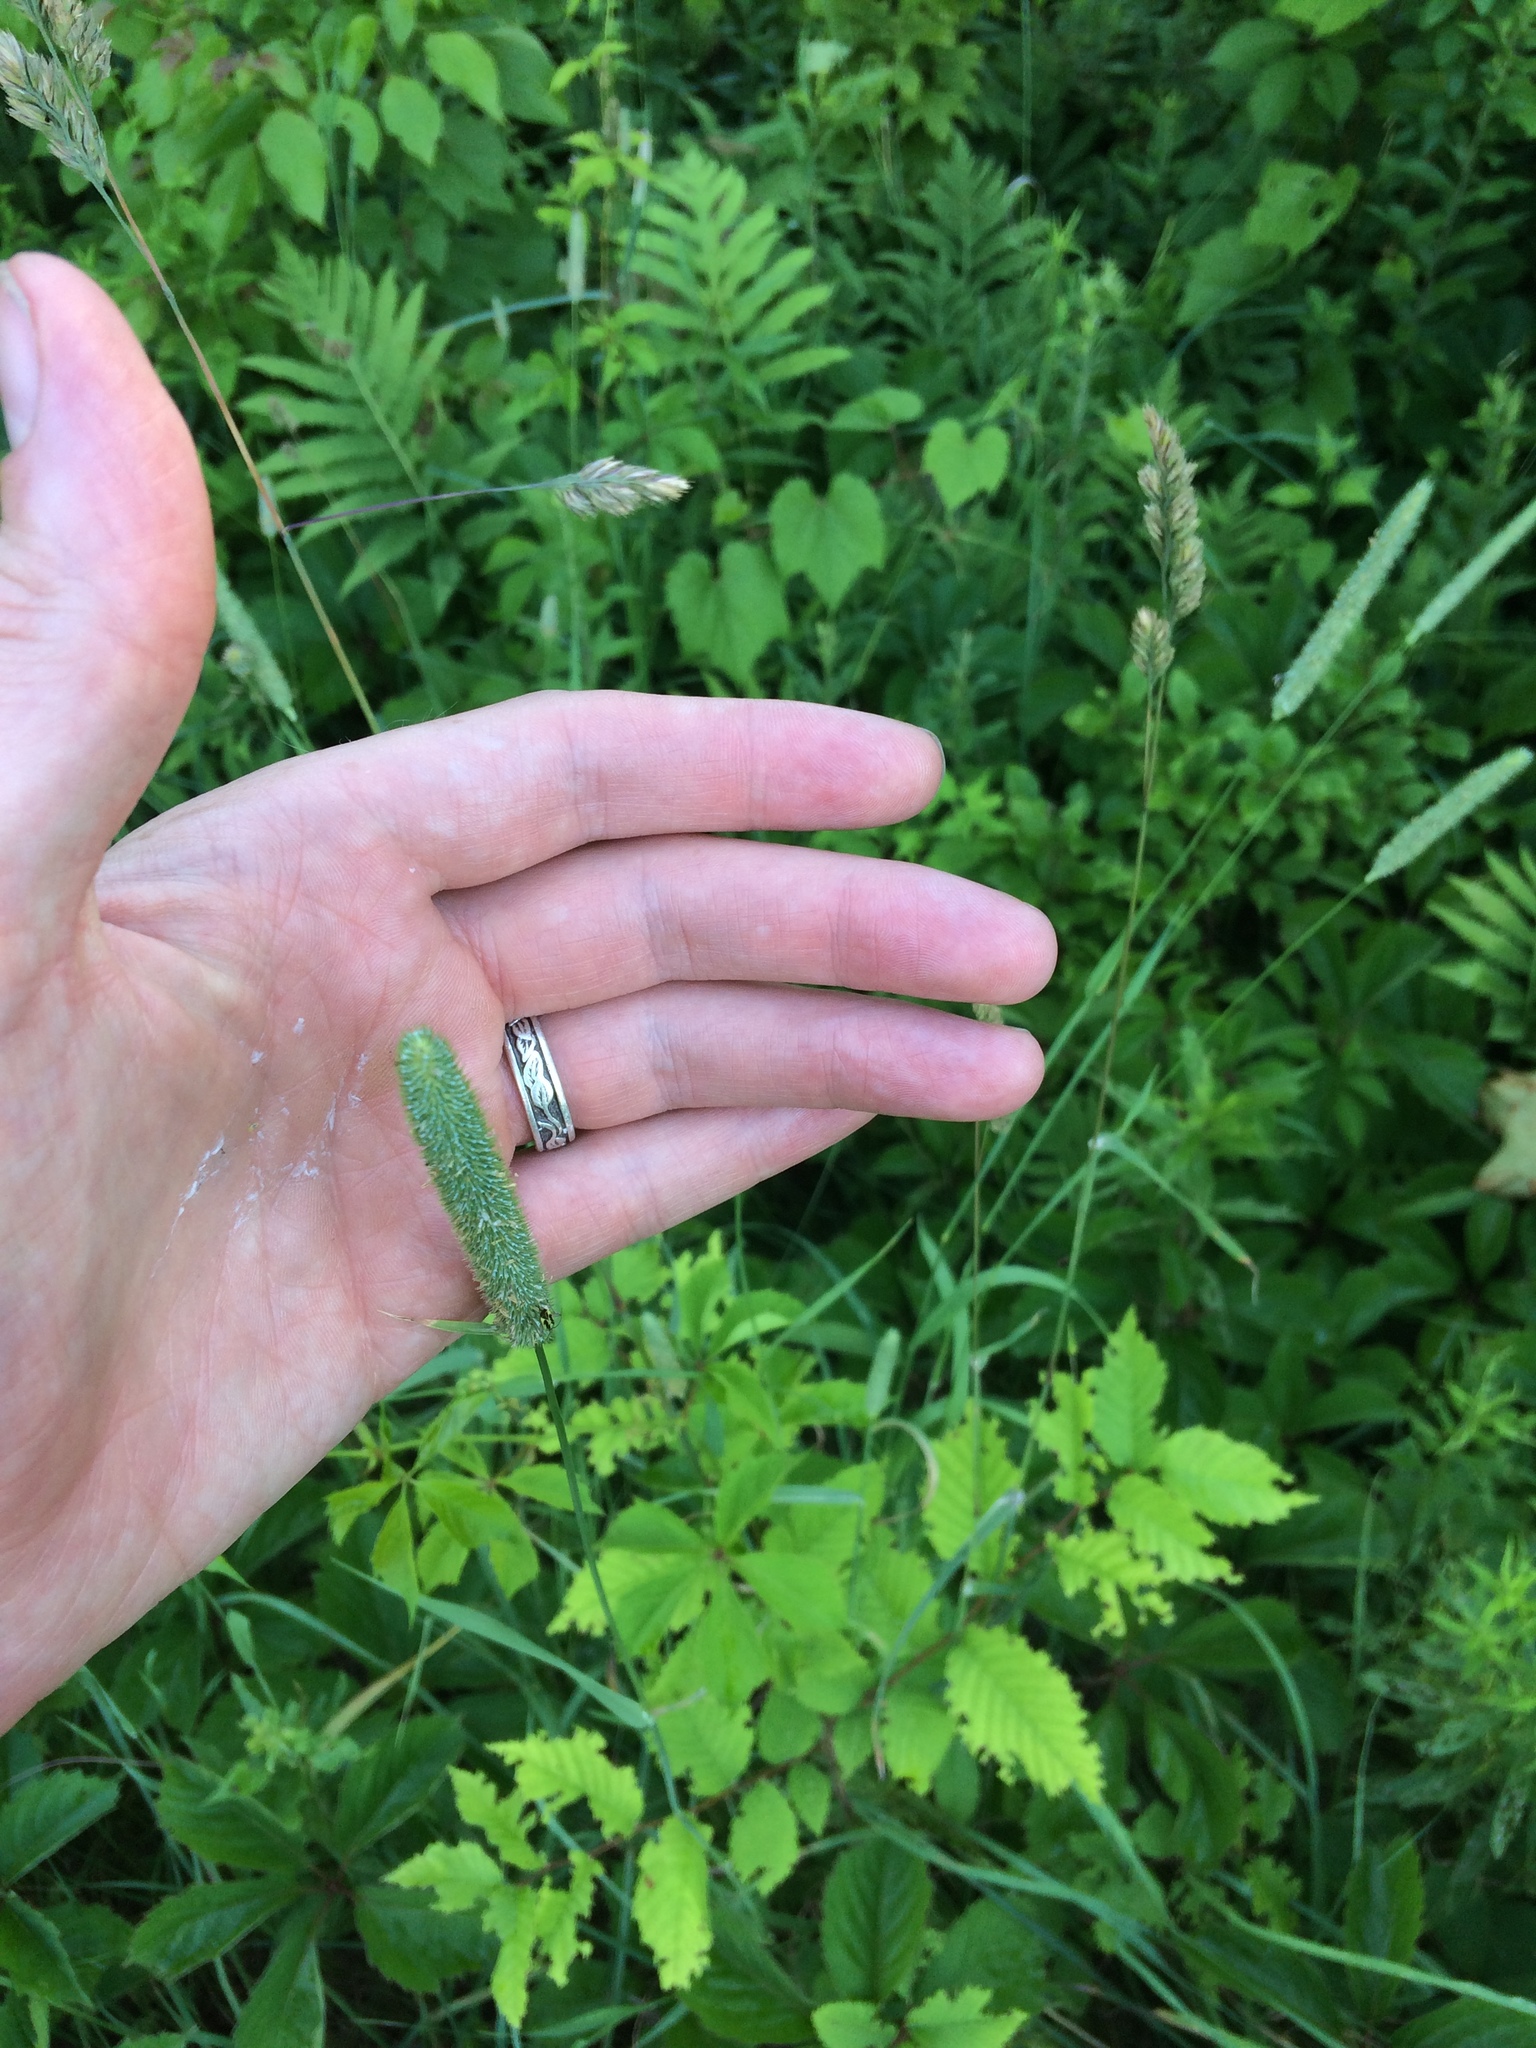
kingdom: Plantae
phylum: Tracheophyta
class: Liliopsida
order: Poales
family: Poaceae
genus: Phleum
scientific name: Phleum pratense
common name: Timothy grass
